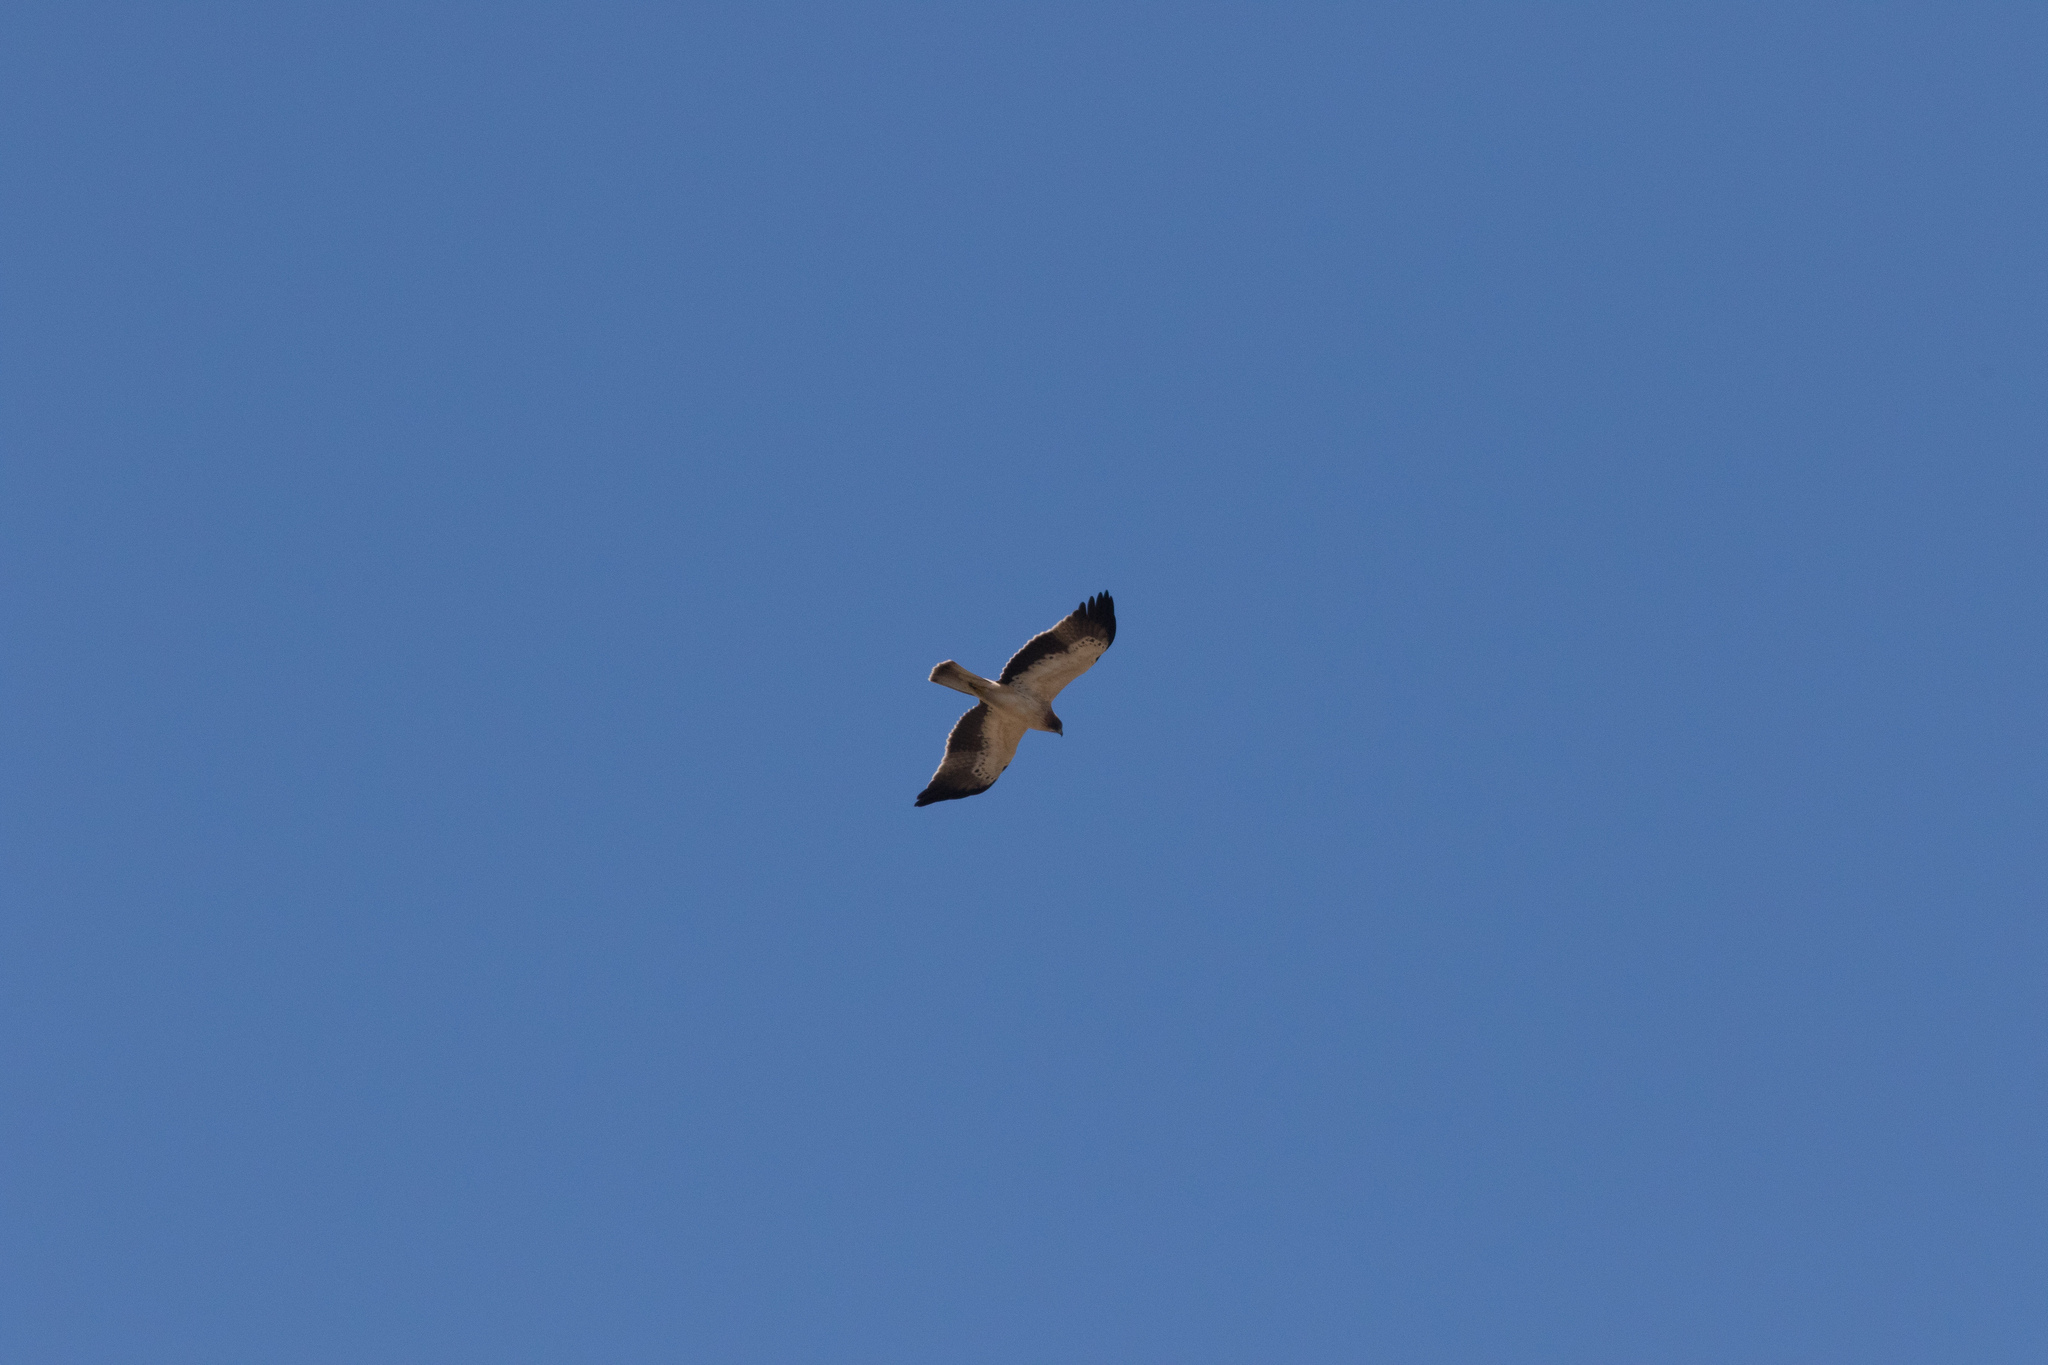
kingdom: Animalia
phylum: Chordata
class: Aves
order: Accipitriformes
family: Accipitridae
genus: Hieraaetus
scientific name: Hieraaetus pennatus
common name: Booted eagle
